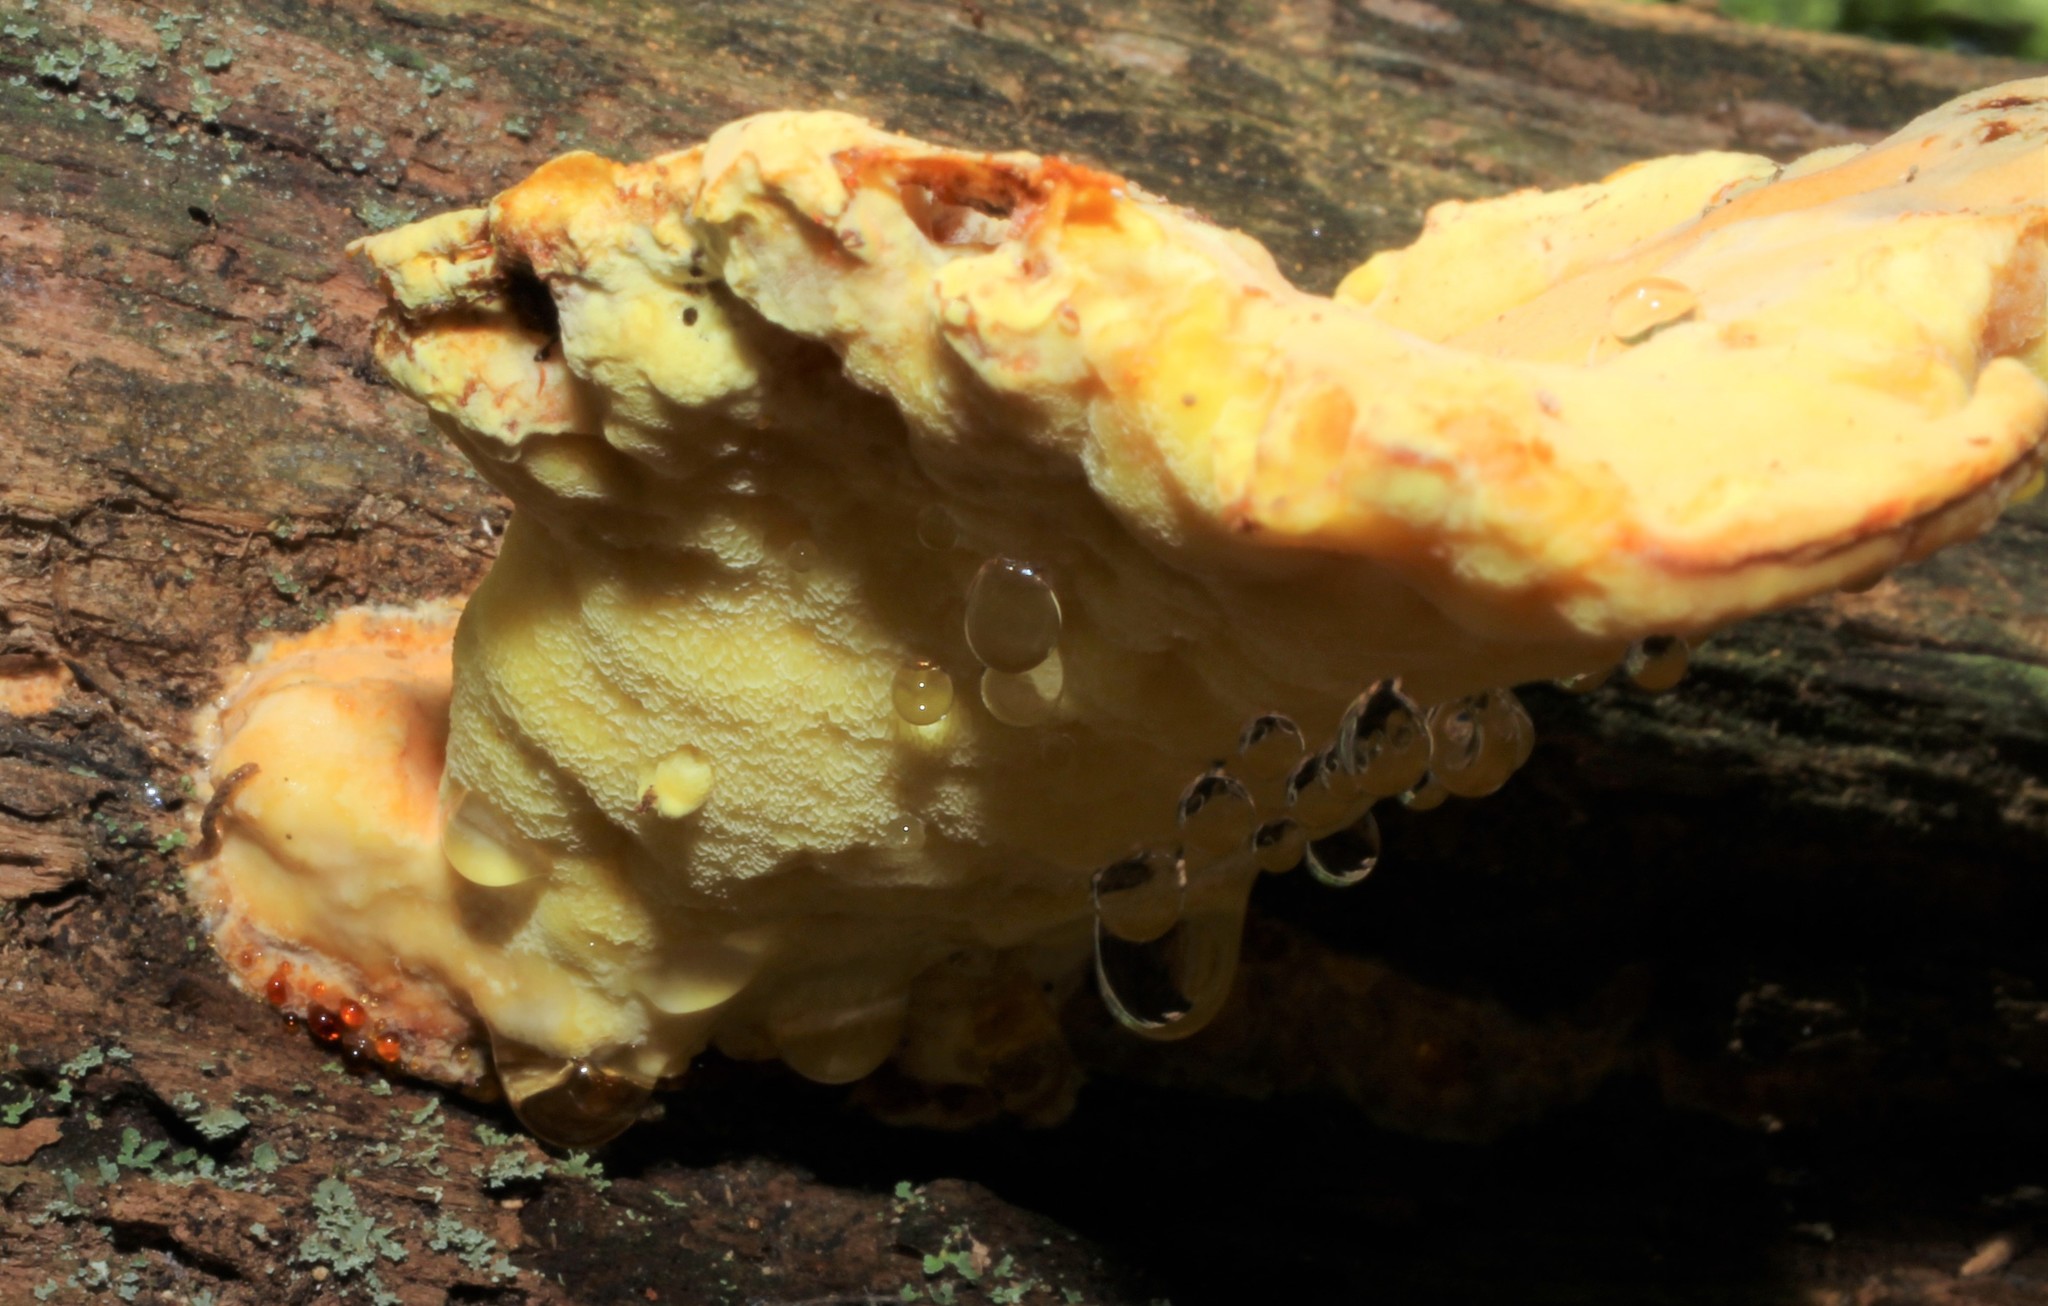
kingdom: Fungi
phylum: Basidiomycota
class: Agaricomycetes
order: Polyporales
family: Laetiporaceae
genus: Laetiporus
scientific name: Laetiporus sulphureus
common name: Chicken of the woods
